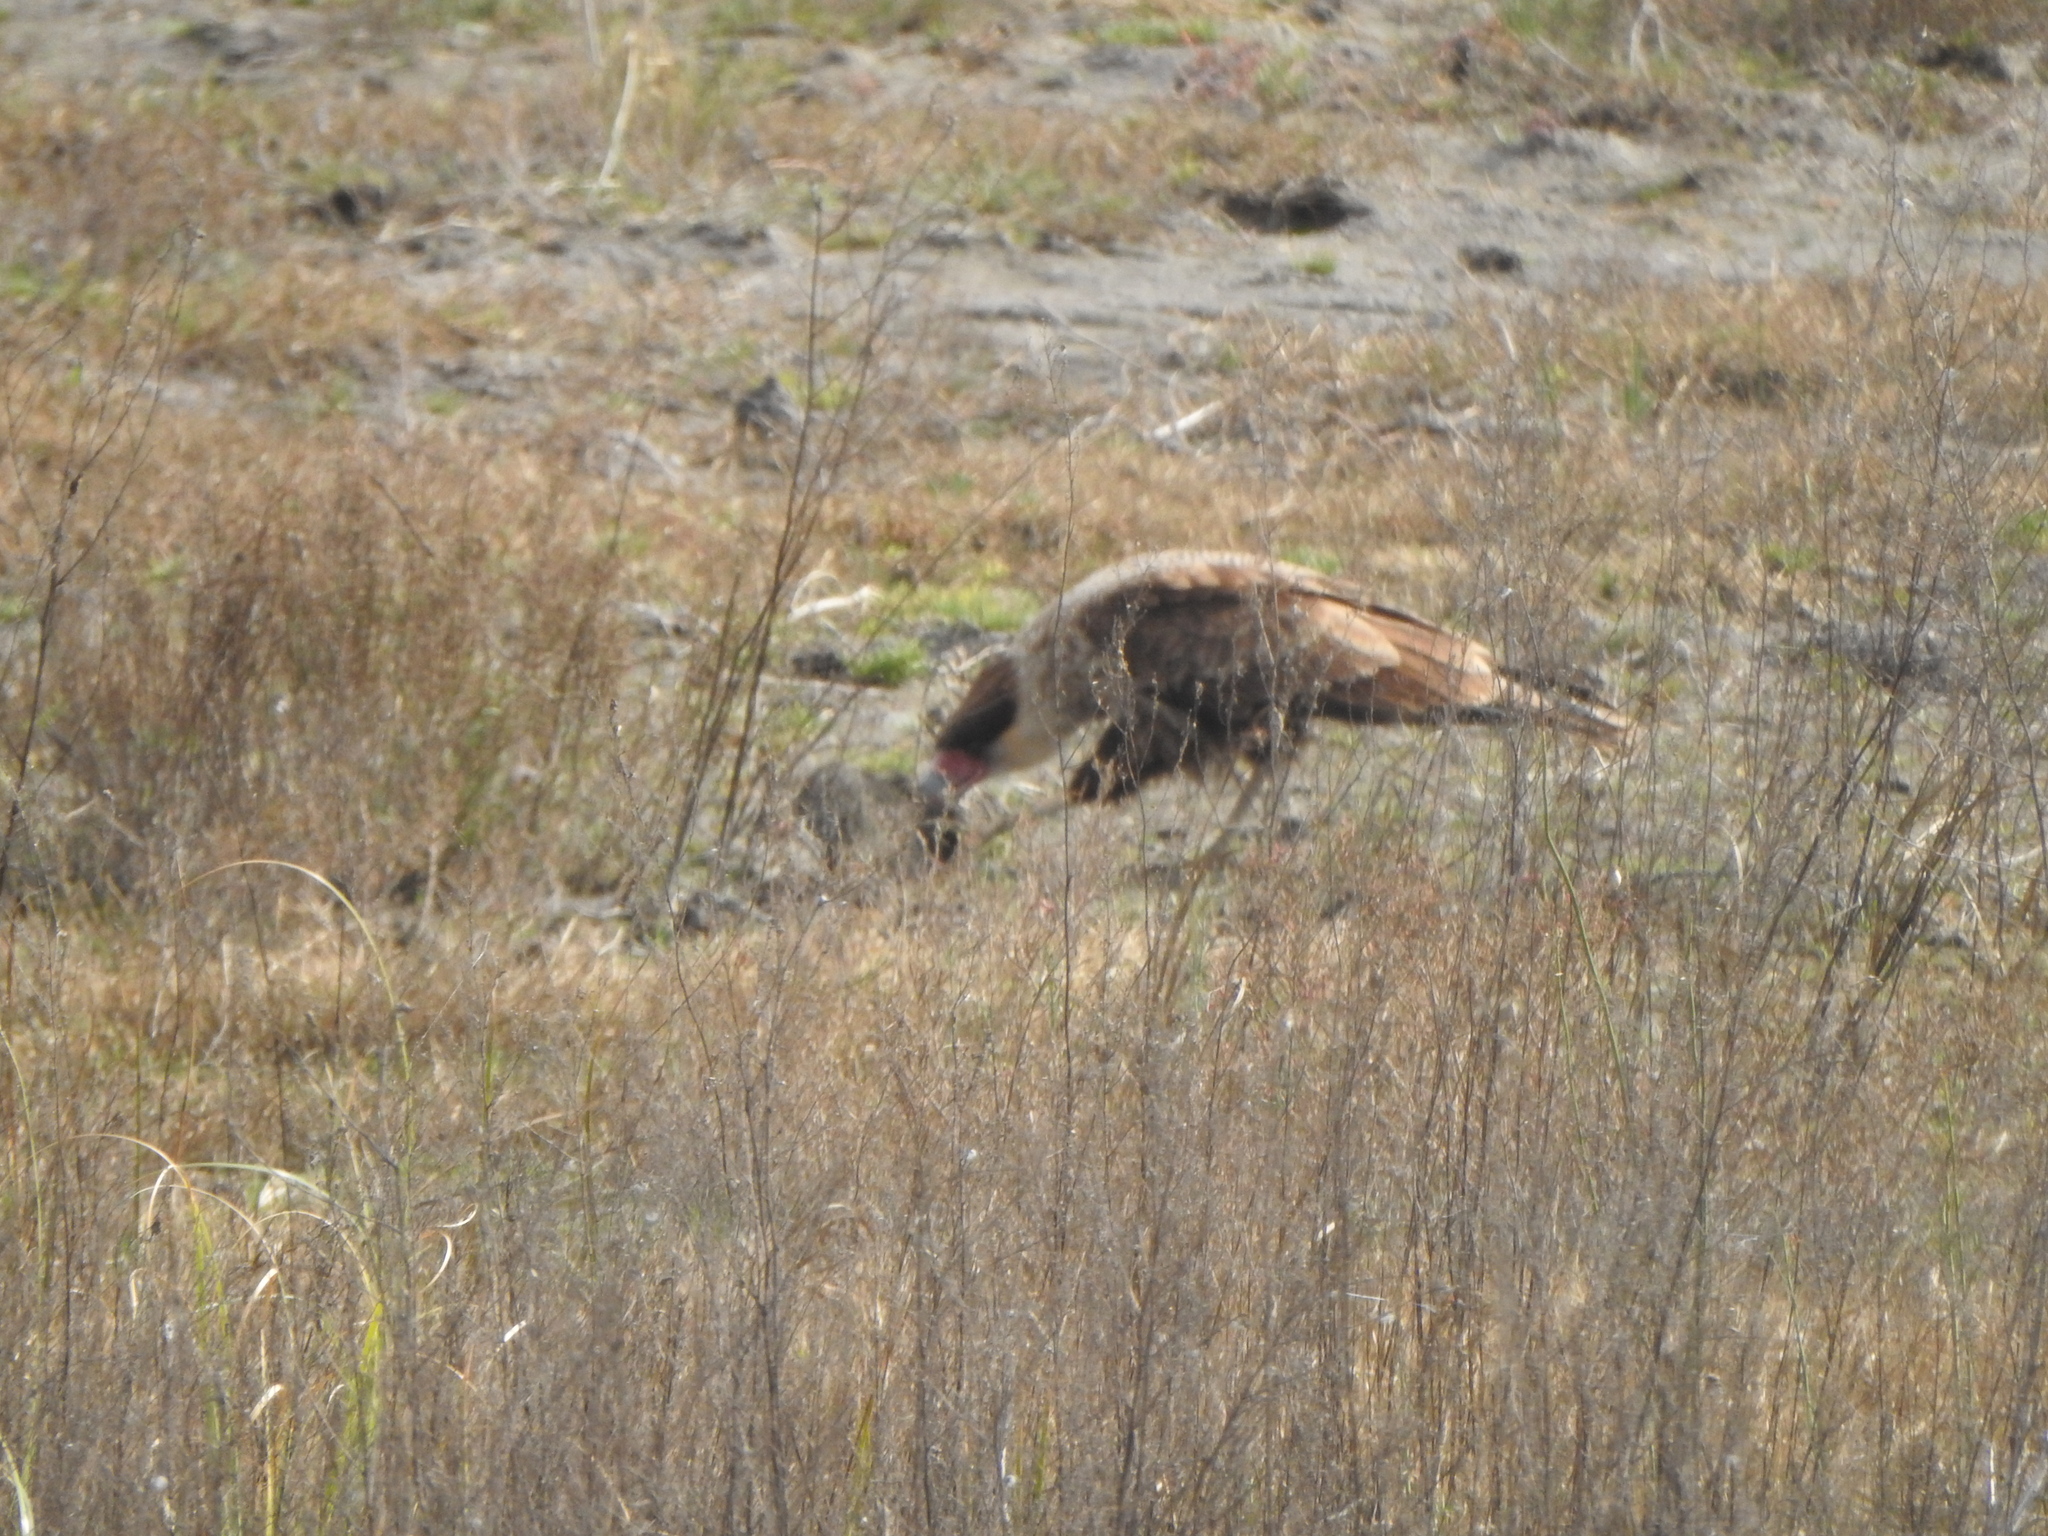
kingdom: Animalia
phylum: Chordata
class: Mammalia
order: Rodentia
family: Caviidae
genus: Cavia
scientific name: Cavia aperea
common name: Brazilian guinea pig
